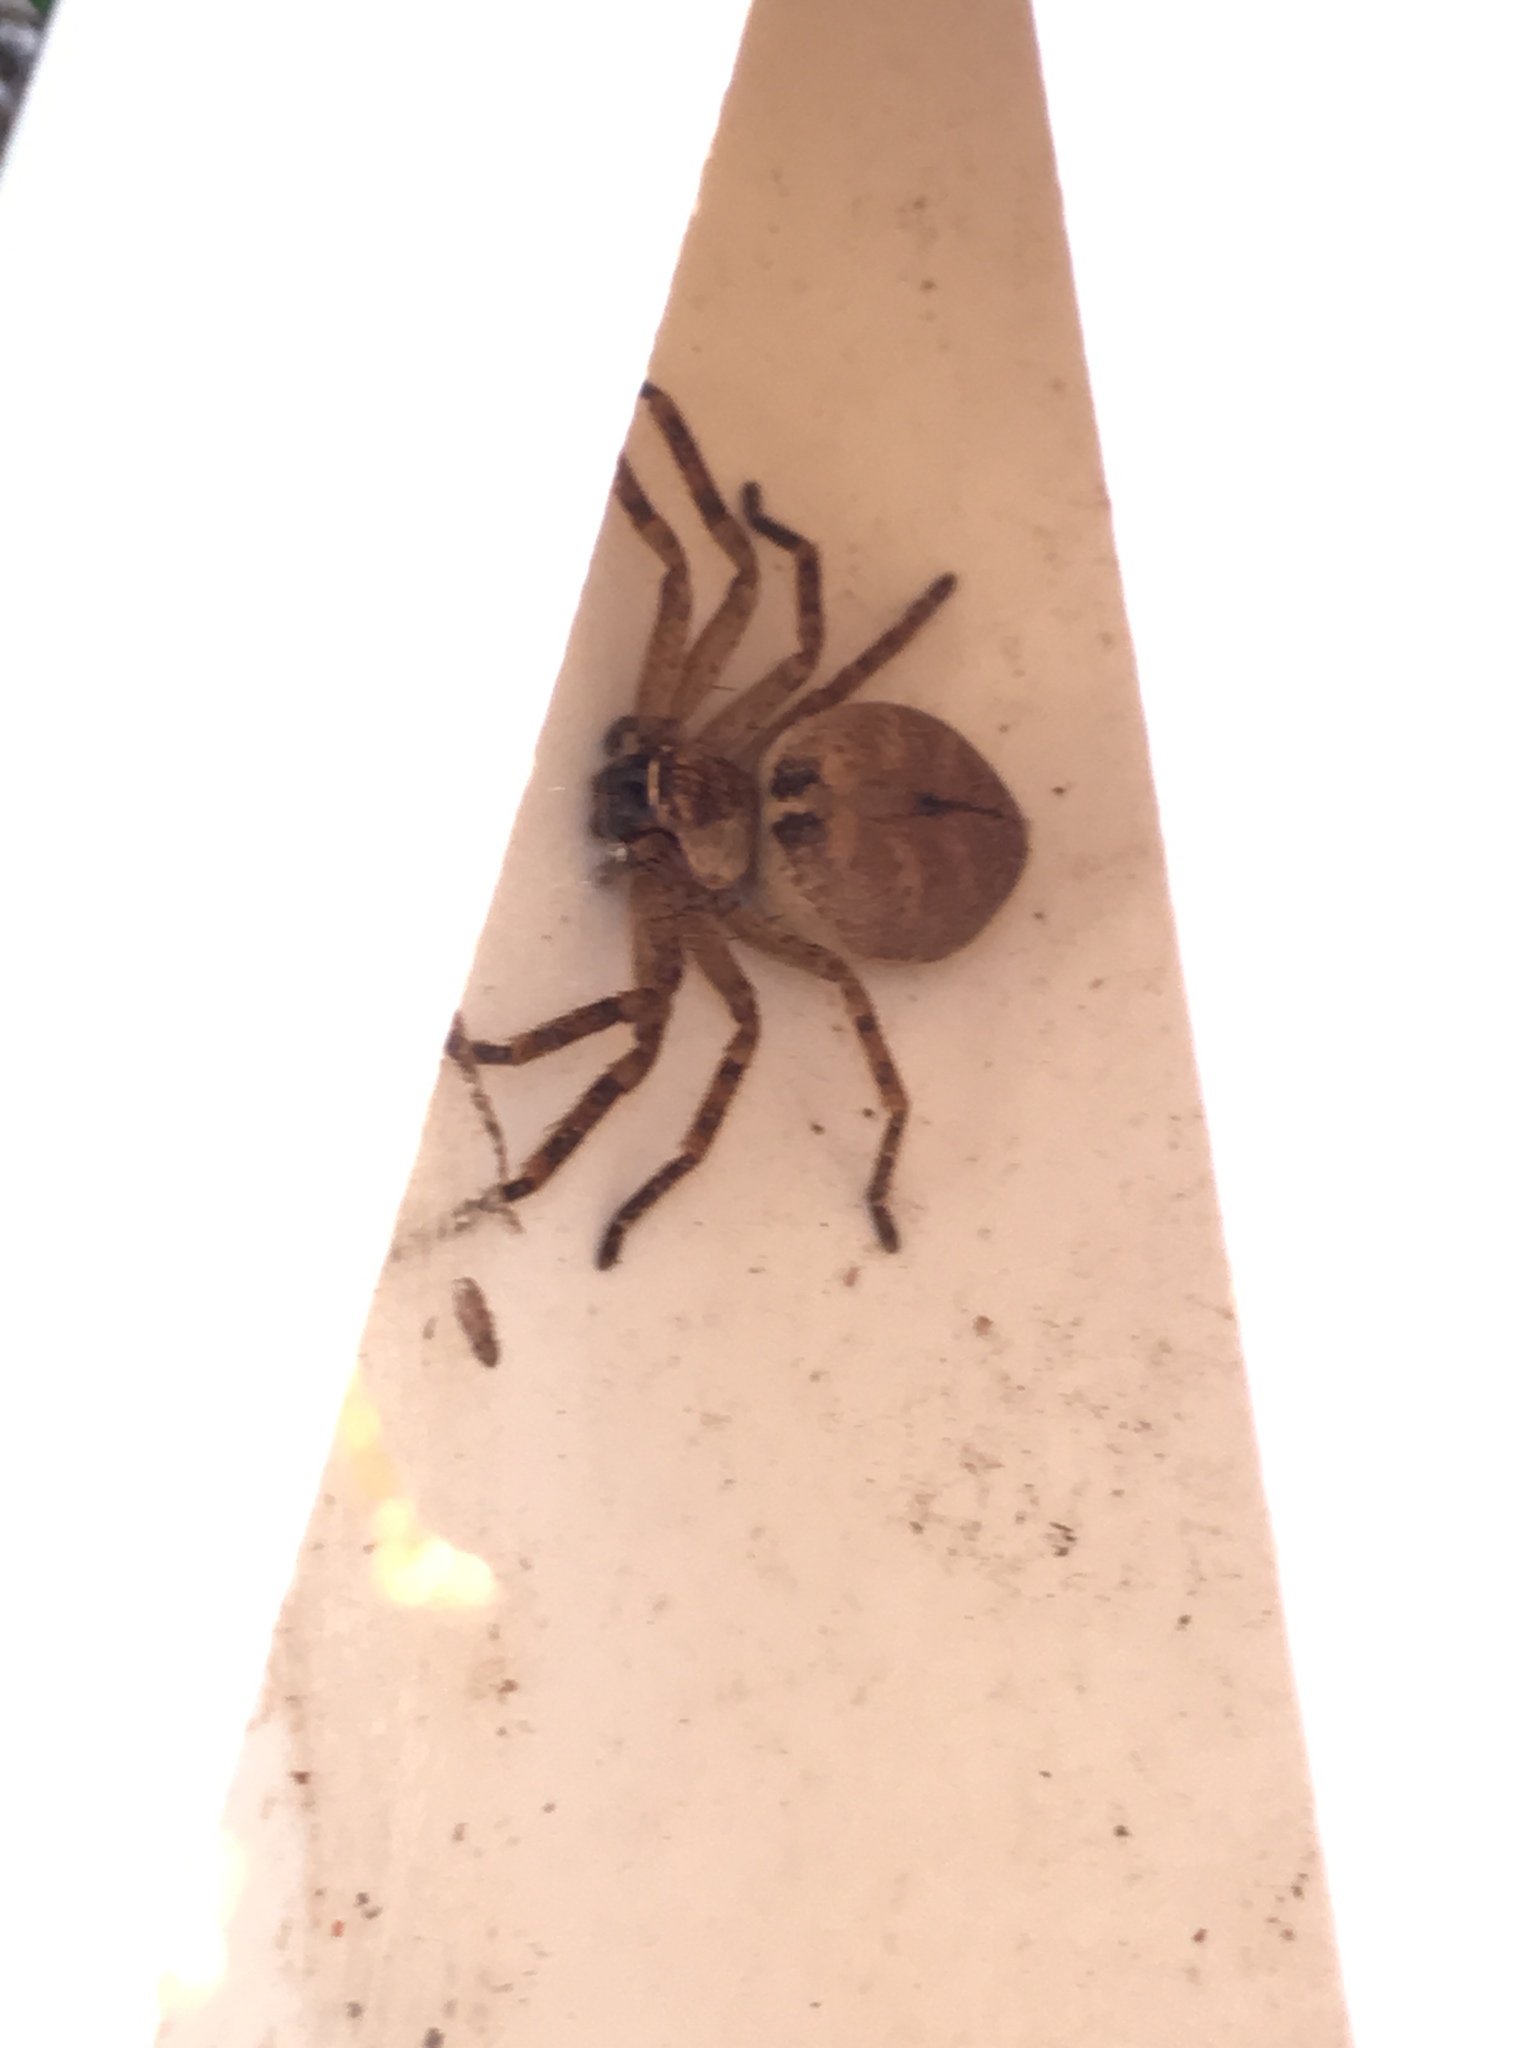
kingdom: Animalia
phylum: Arthropoda
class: Arachnida
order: Araneae
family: Sparassidae
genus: Polybetes
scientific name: Polybetes rapidus
